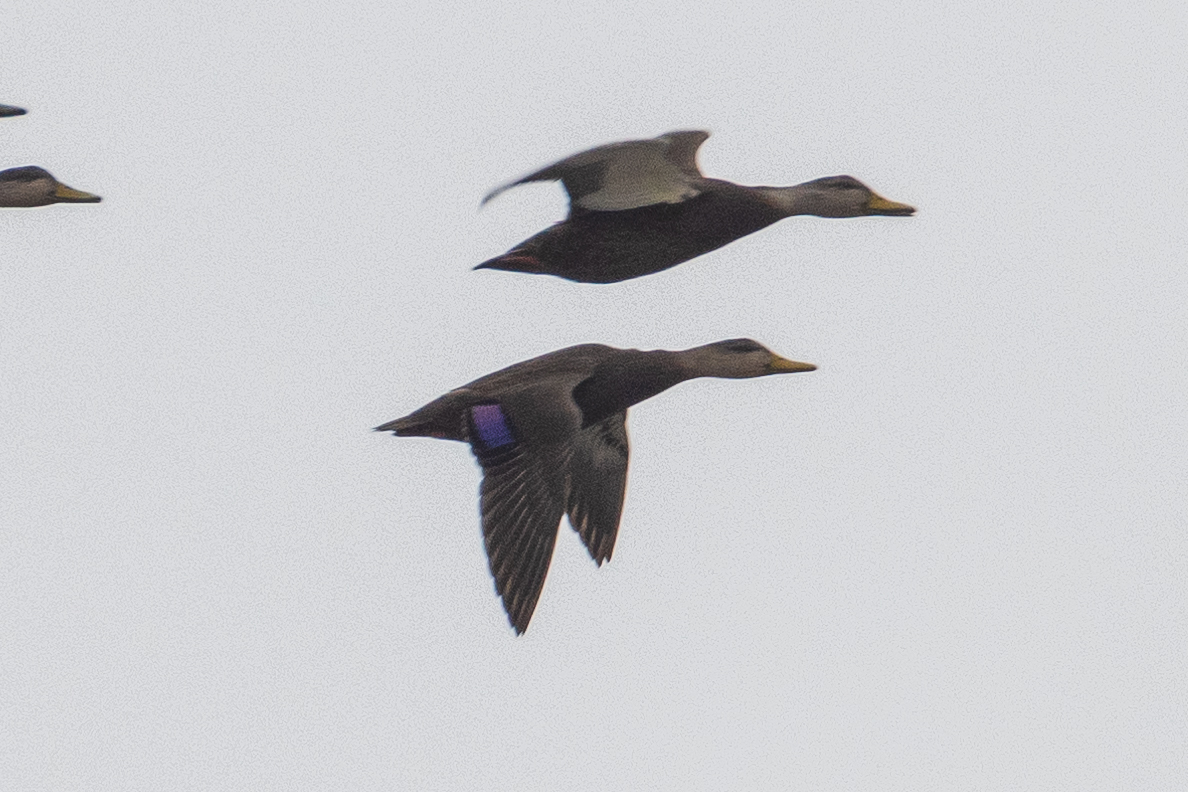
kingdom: Animalia
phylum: Chordata
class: Aves
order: Anseriformes
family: Anatidae
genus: Anas
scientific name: Anas rubripes
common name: American black duck
